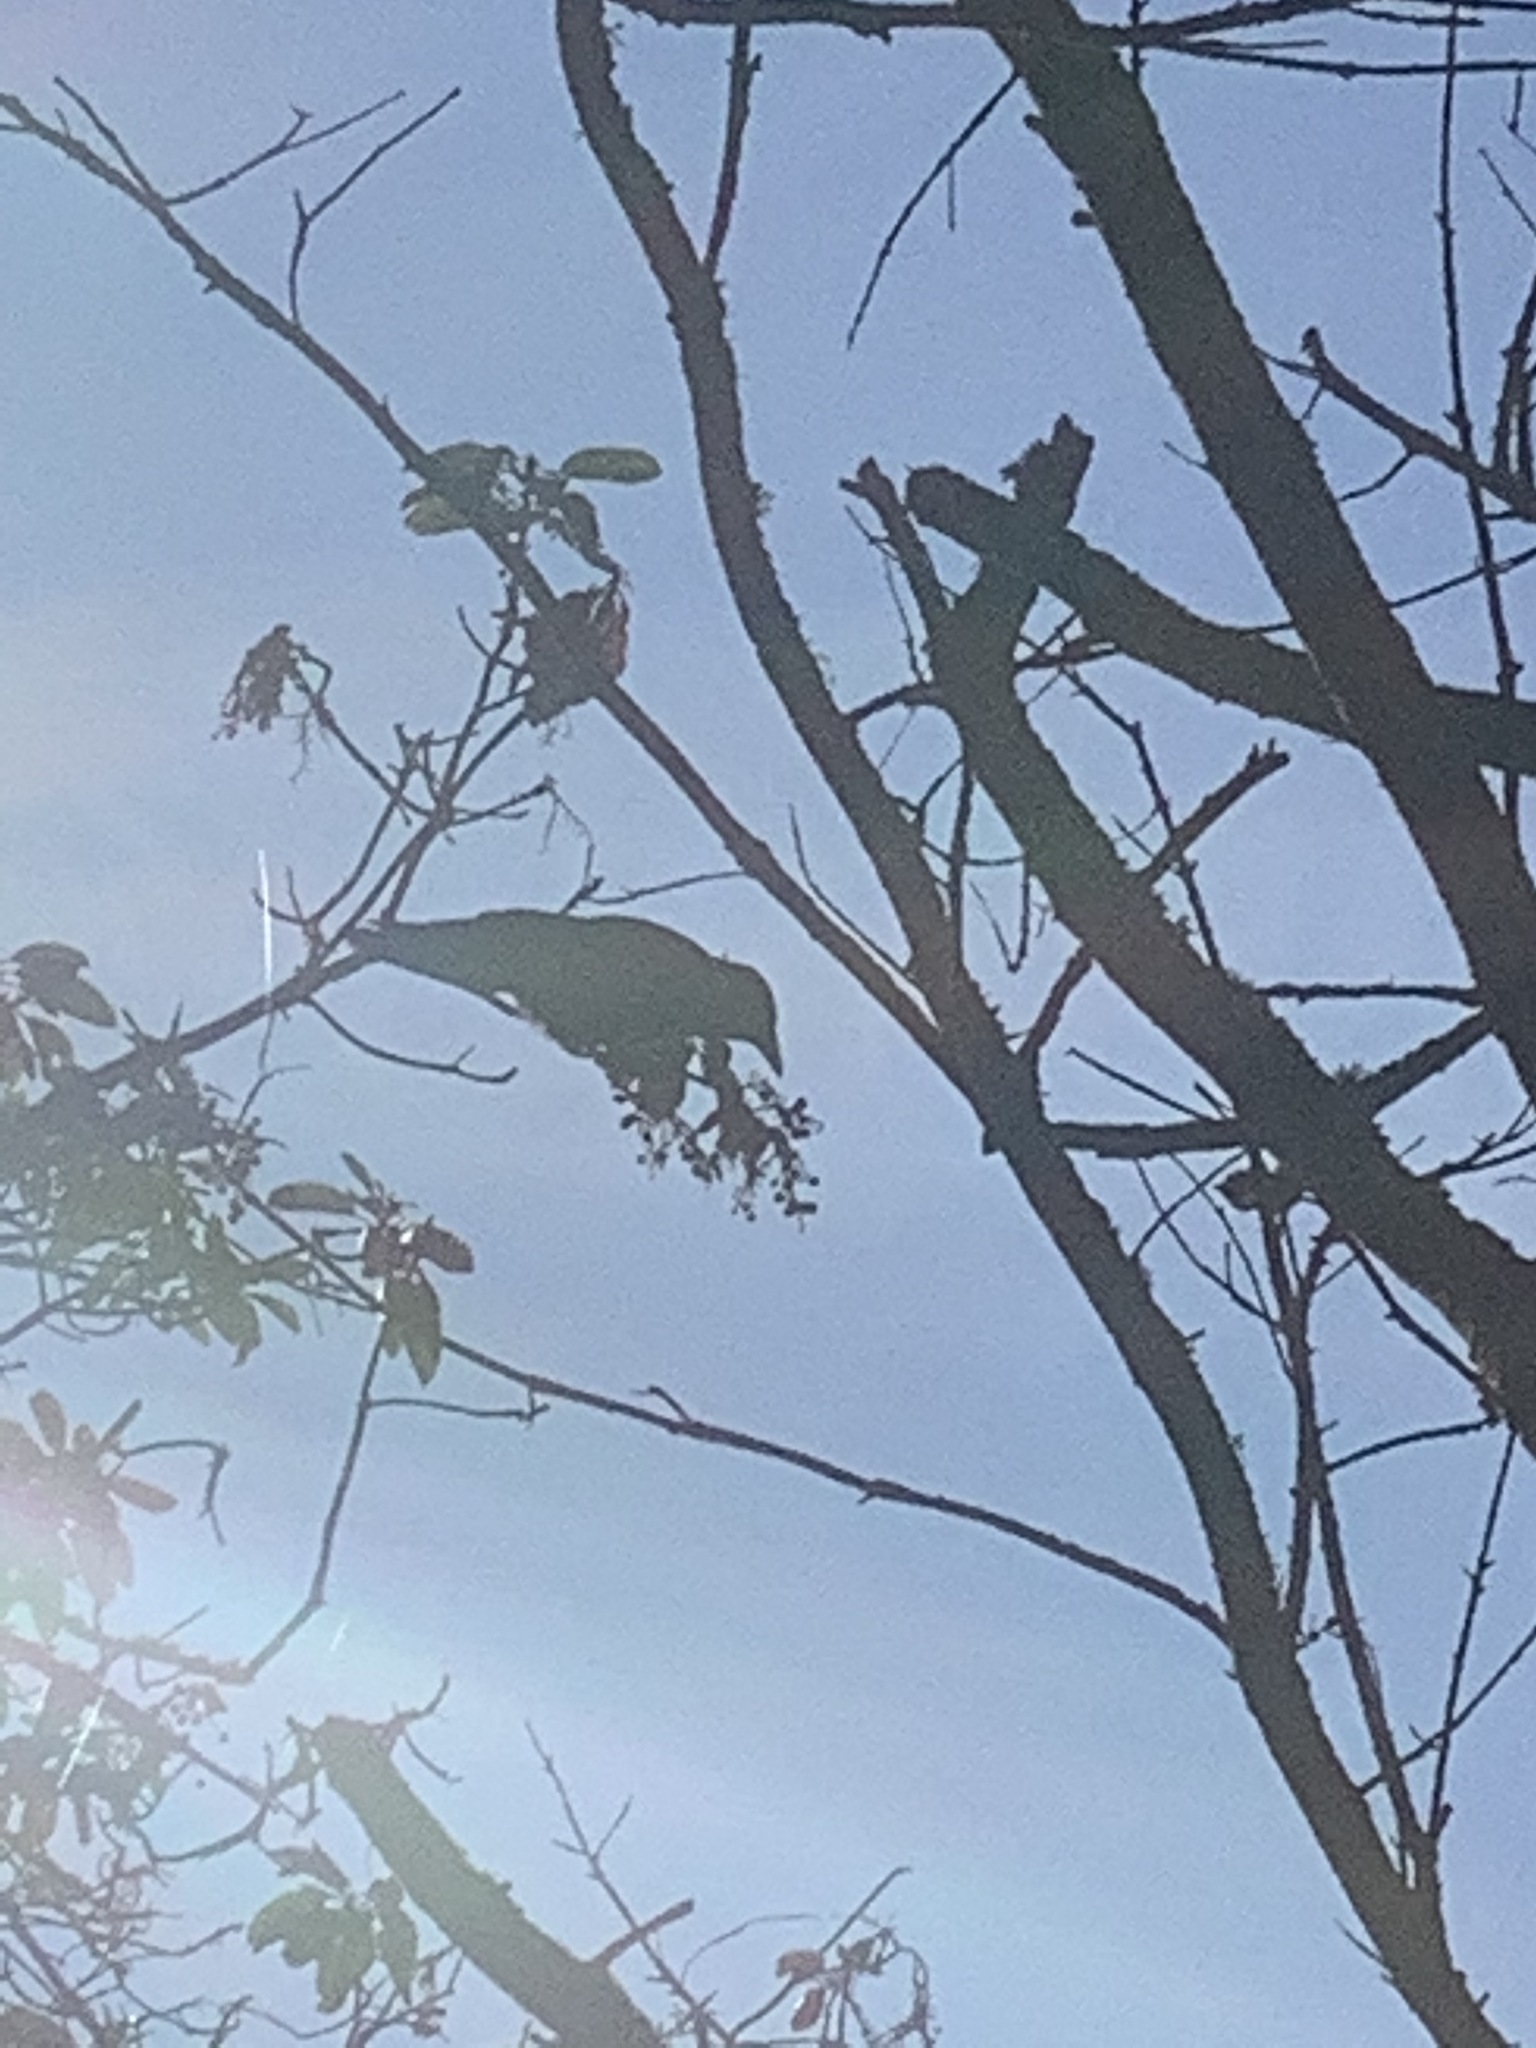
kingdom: Animalia
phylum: Chordata
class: Aves
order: Passeriformes
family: Corvidae
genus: Corvus
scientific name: Corvus brachyrhynchos
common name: American crow
